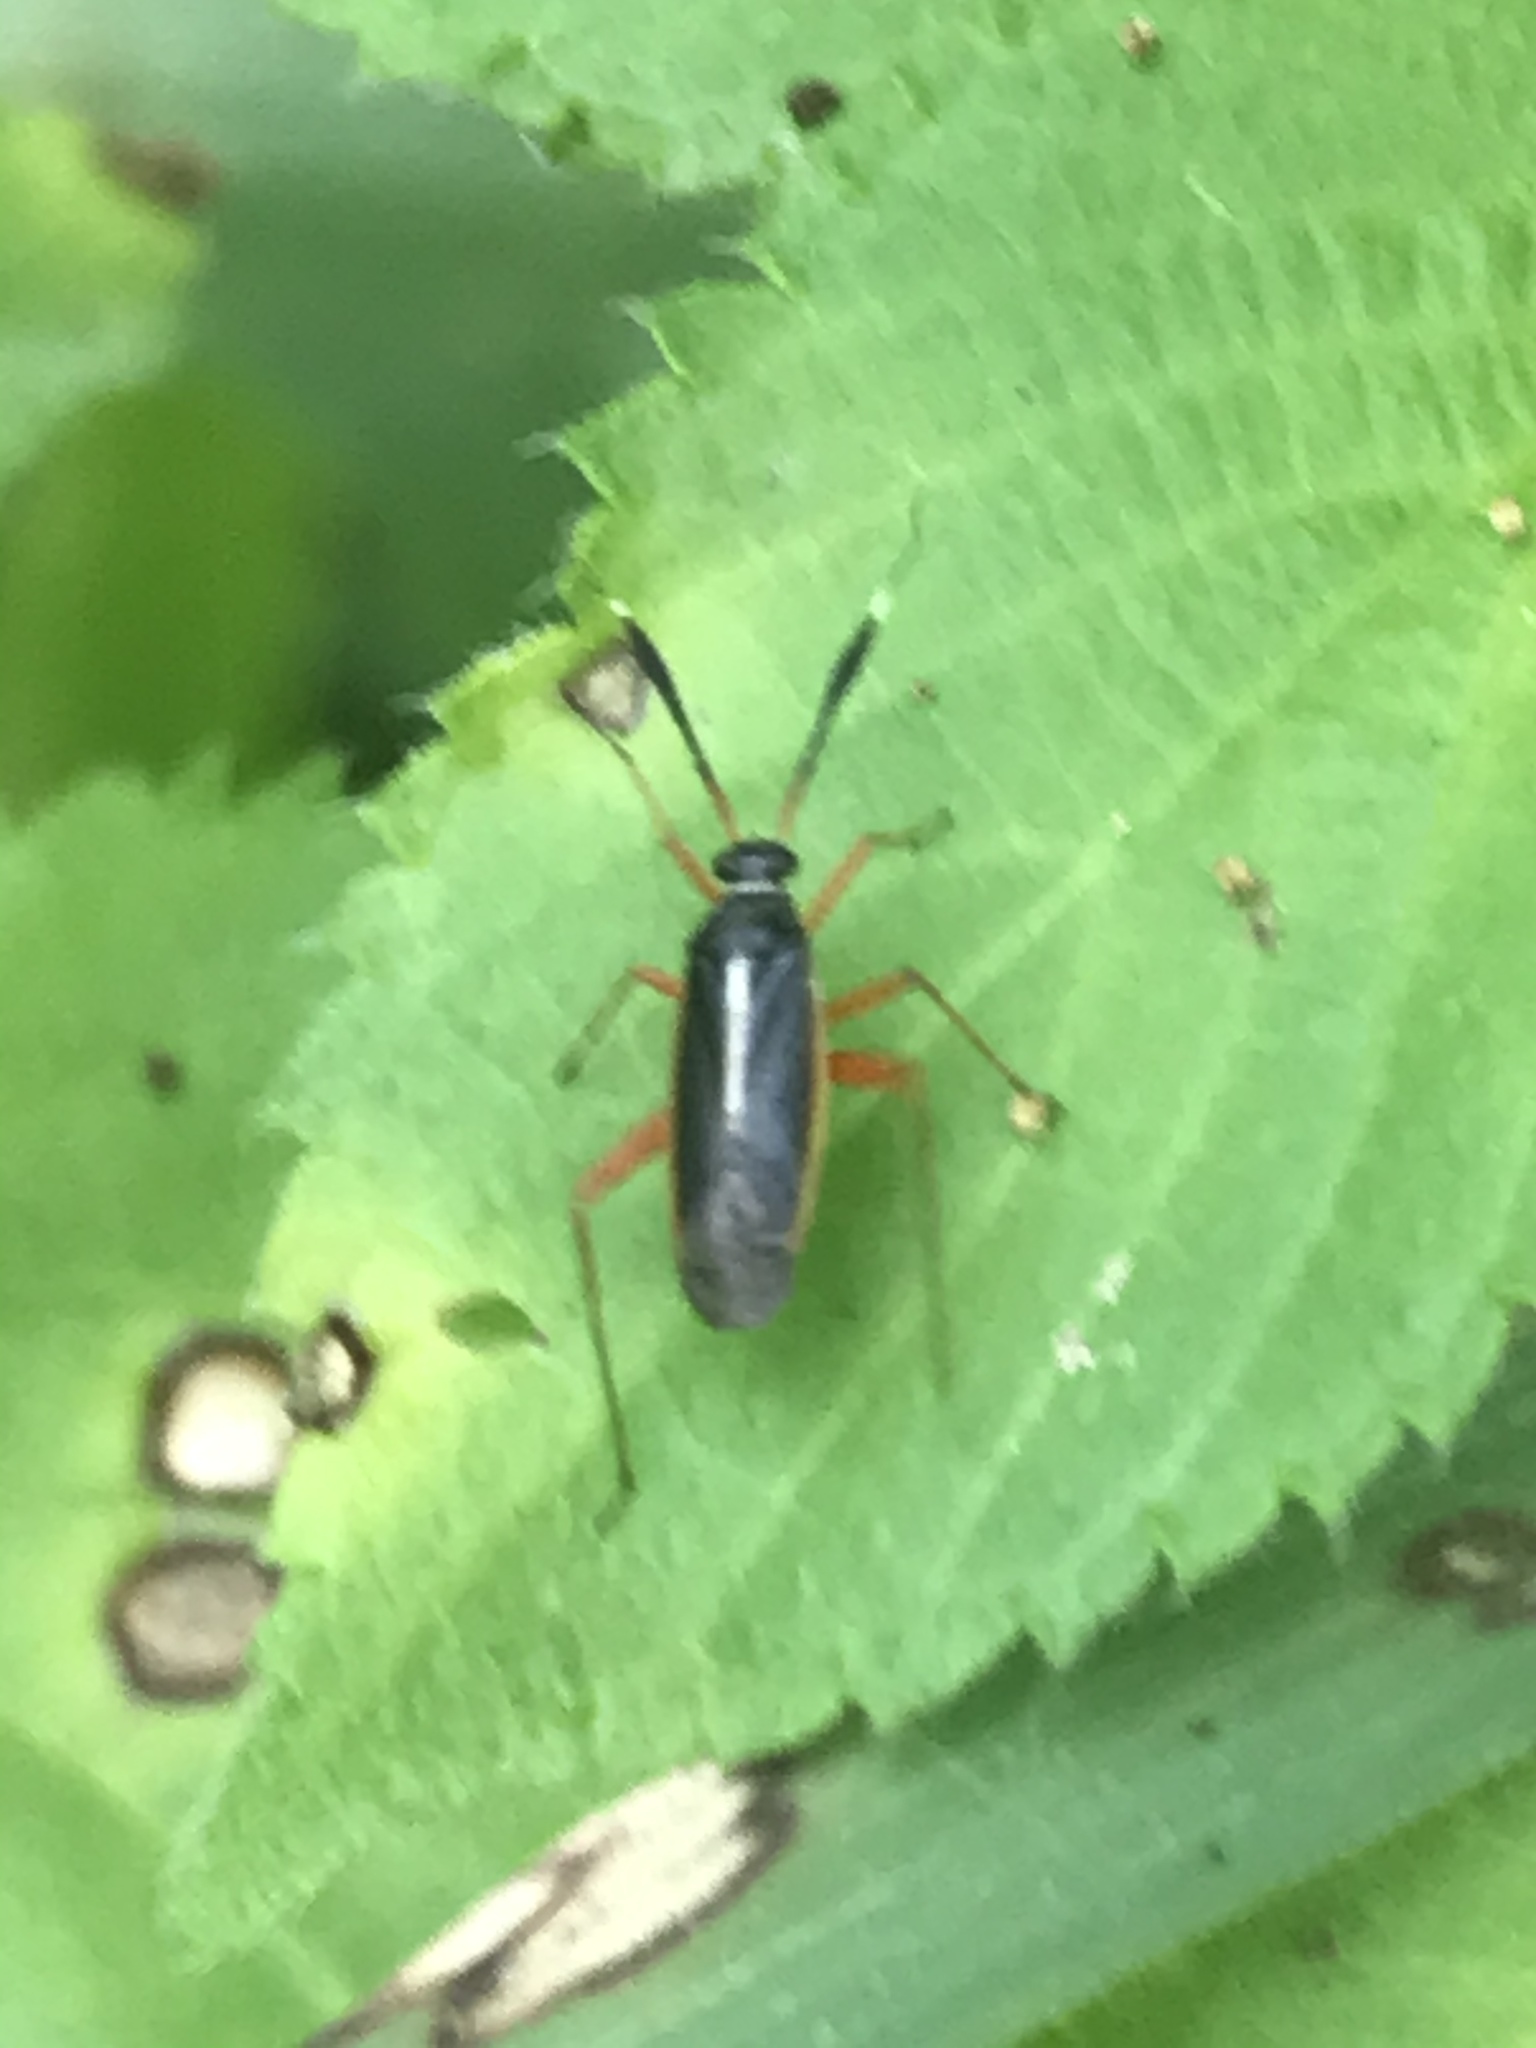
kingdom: Animalia
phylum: Arthropoda
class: Insecta
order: Hemiptera
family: Miridae
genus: Garganus
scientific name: Garganus fusiformis
